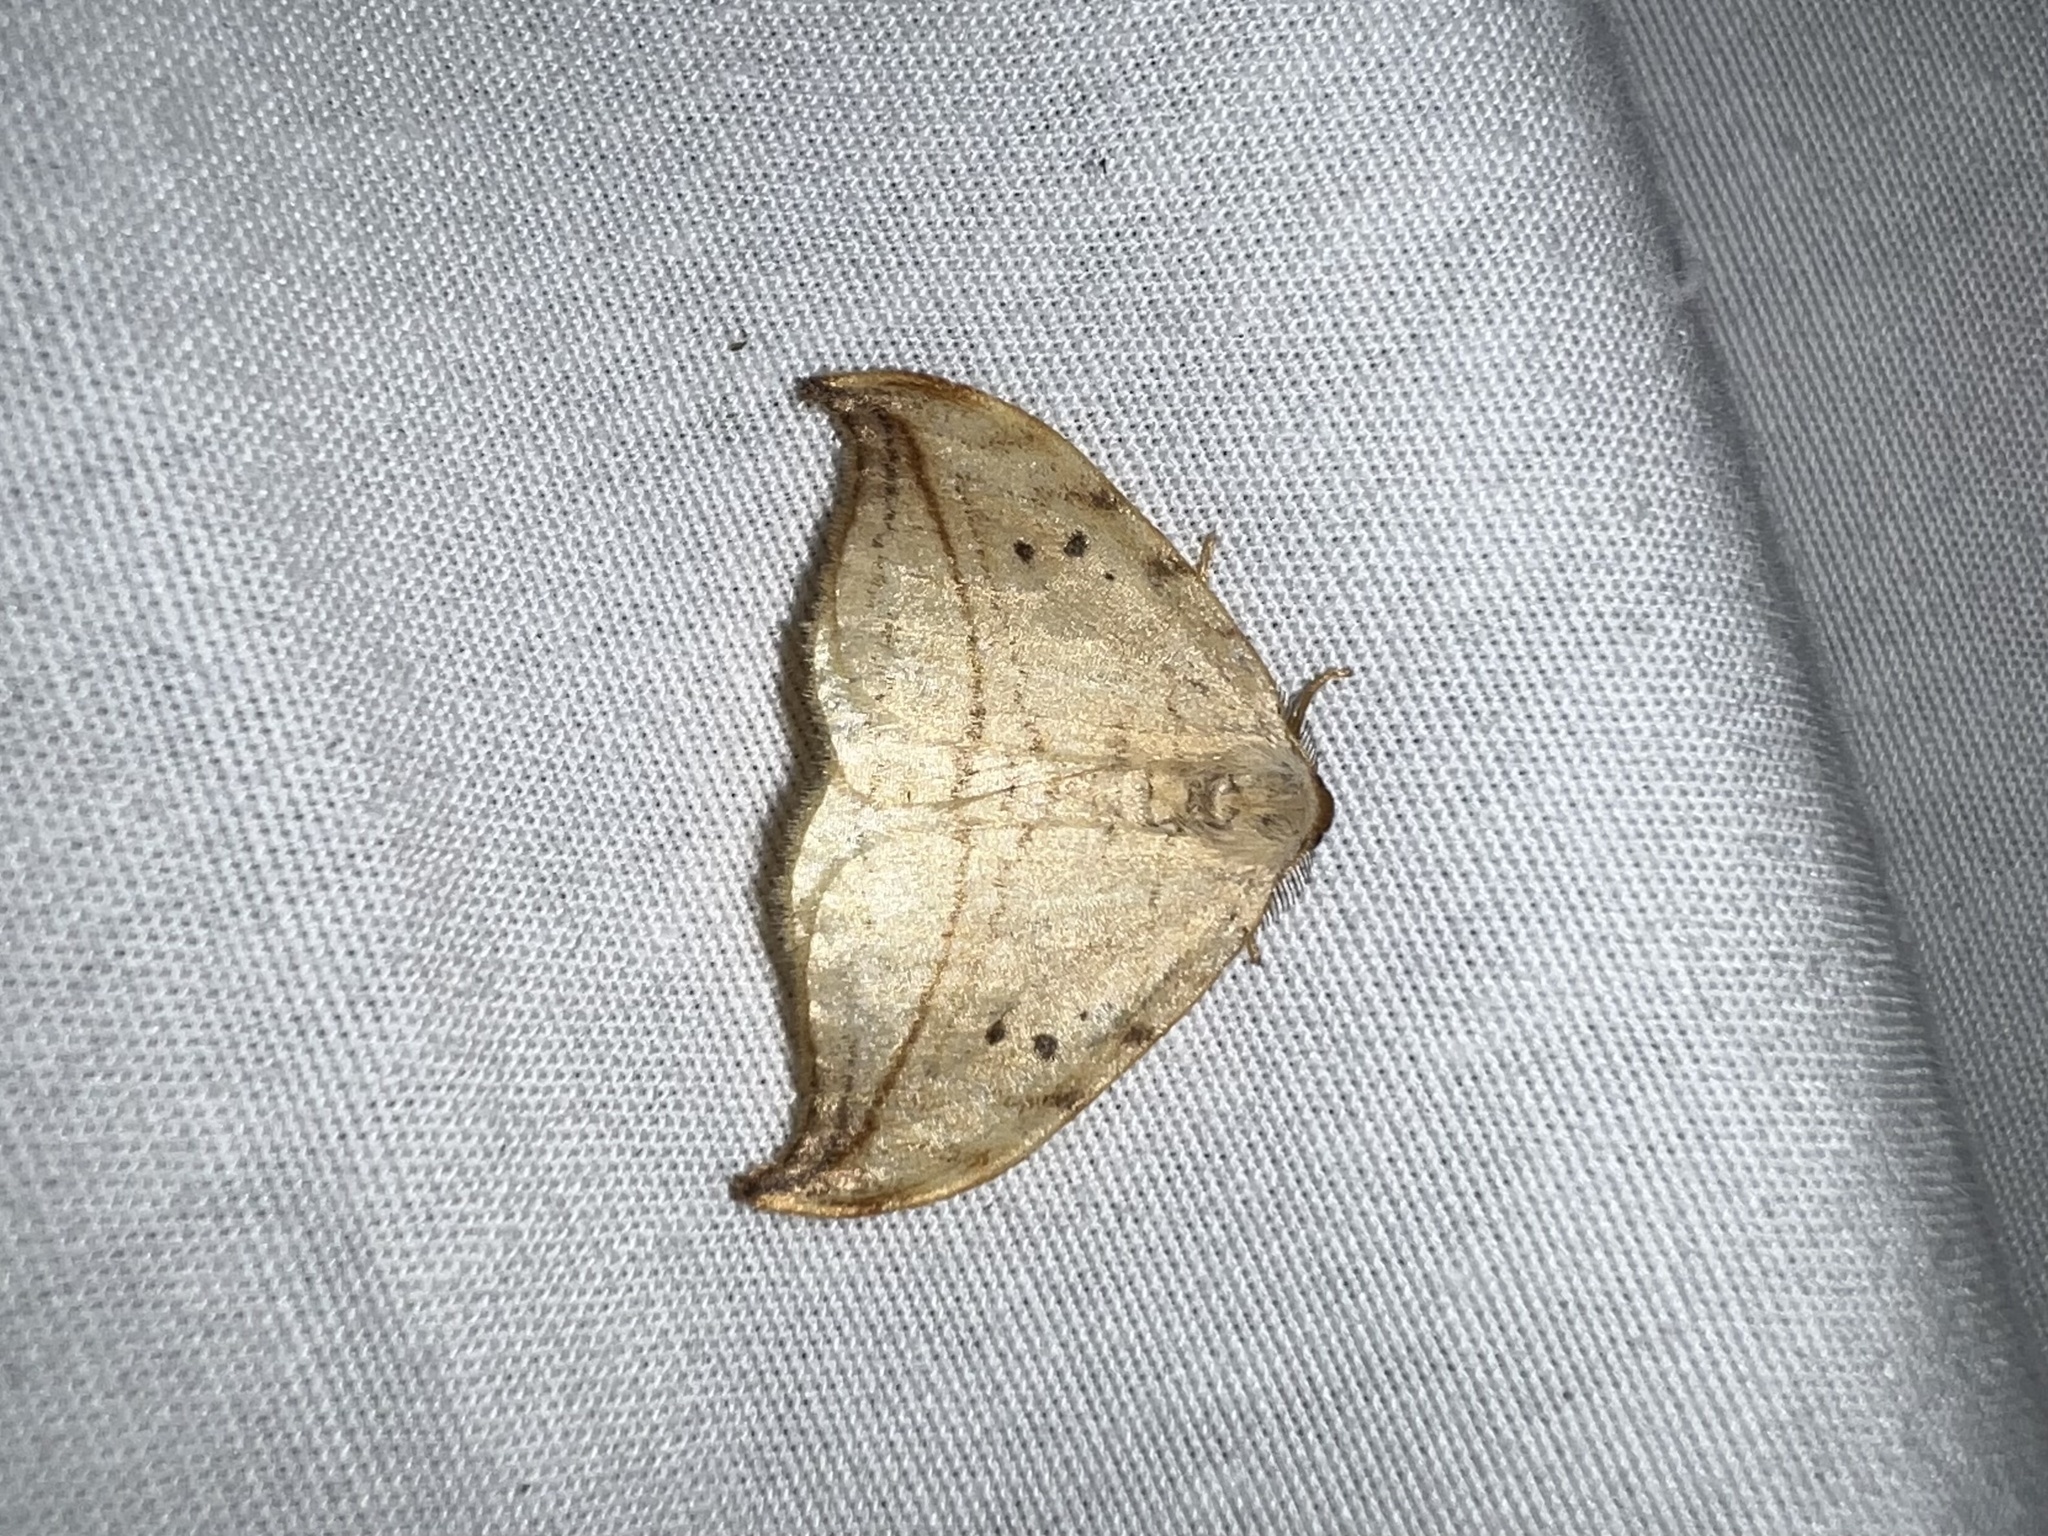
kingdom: Animalia
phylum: Arthropoda
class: Insecta
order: Lepidoptera
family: Drepanidae
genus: Drepana
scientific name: Drepana arcuata
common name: Arched hooktip moth
